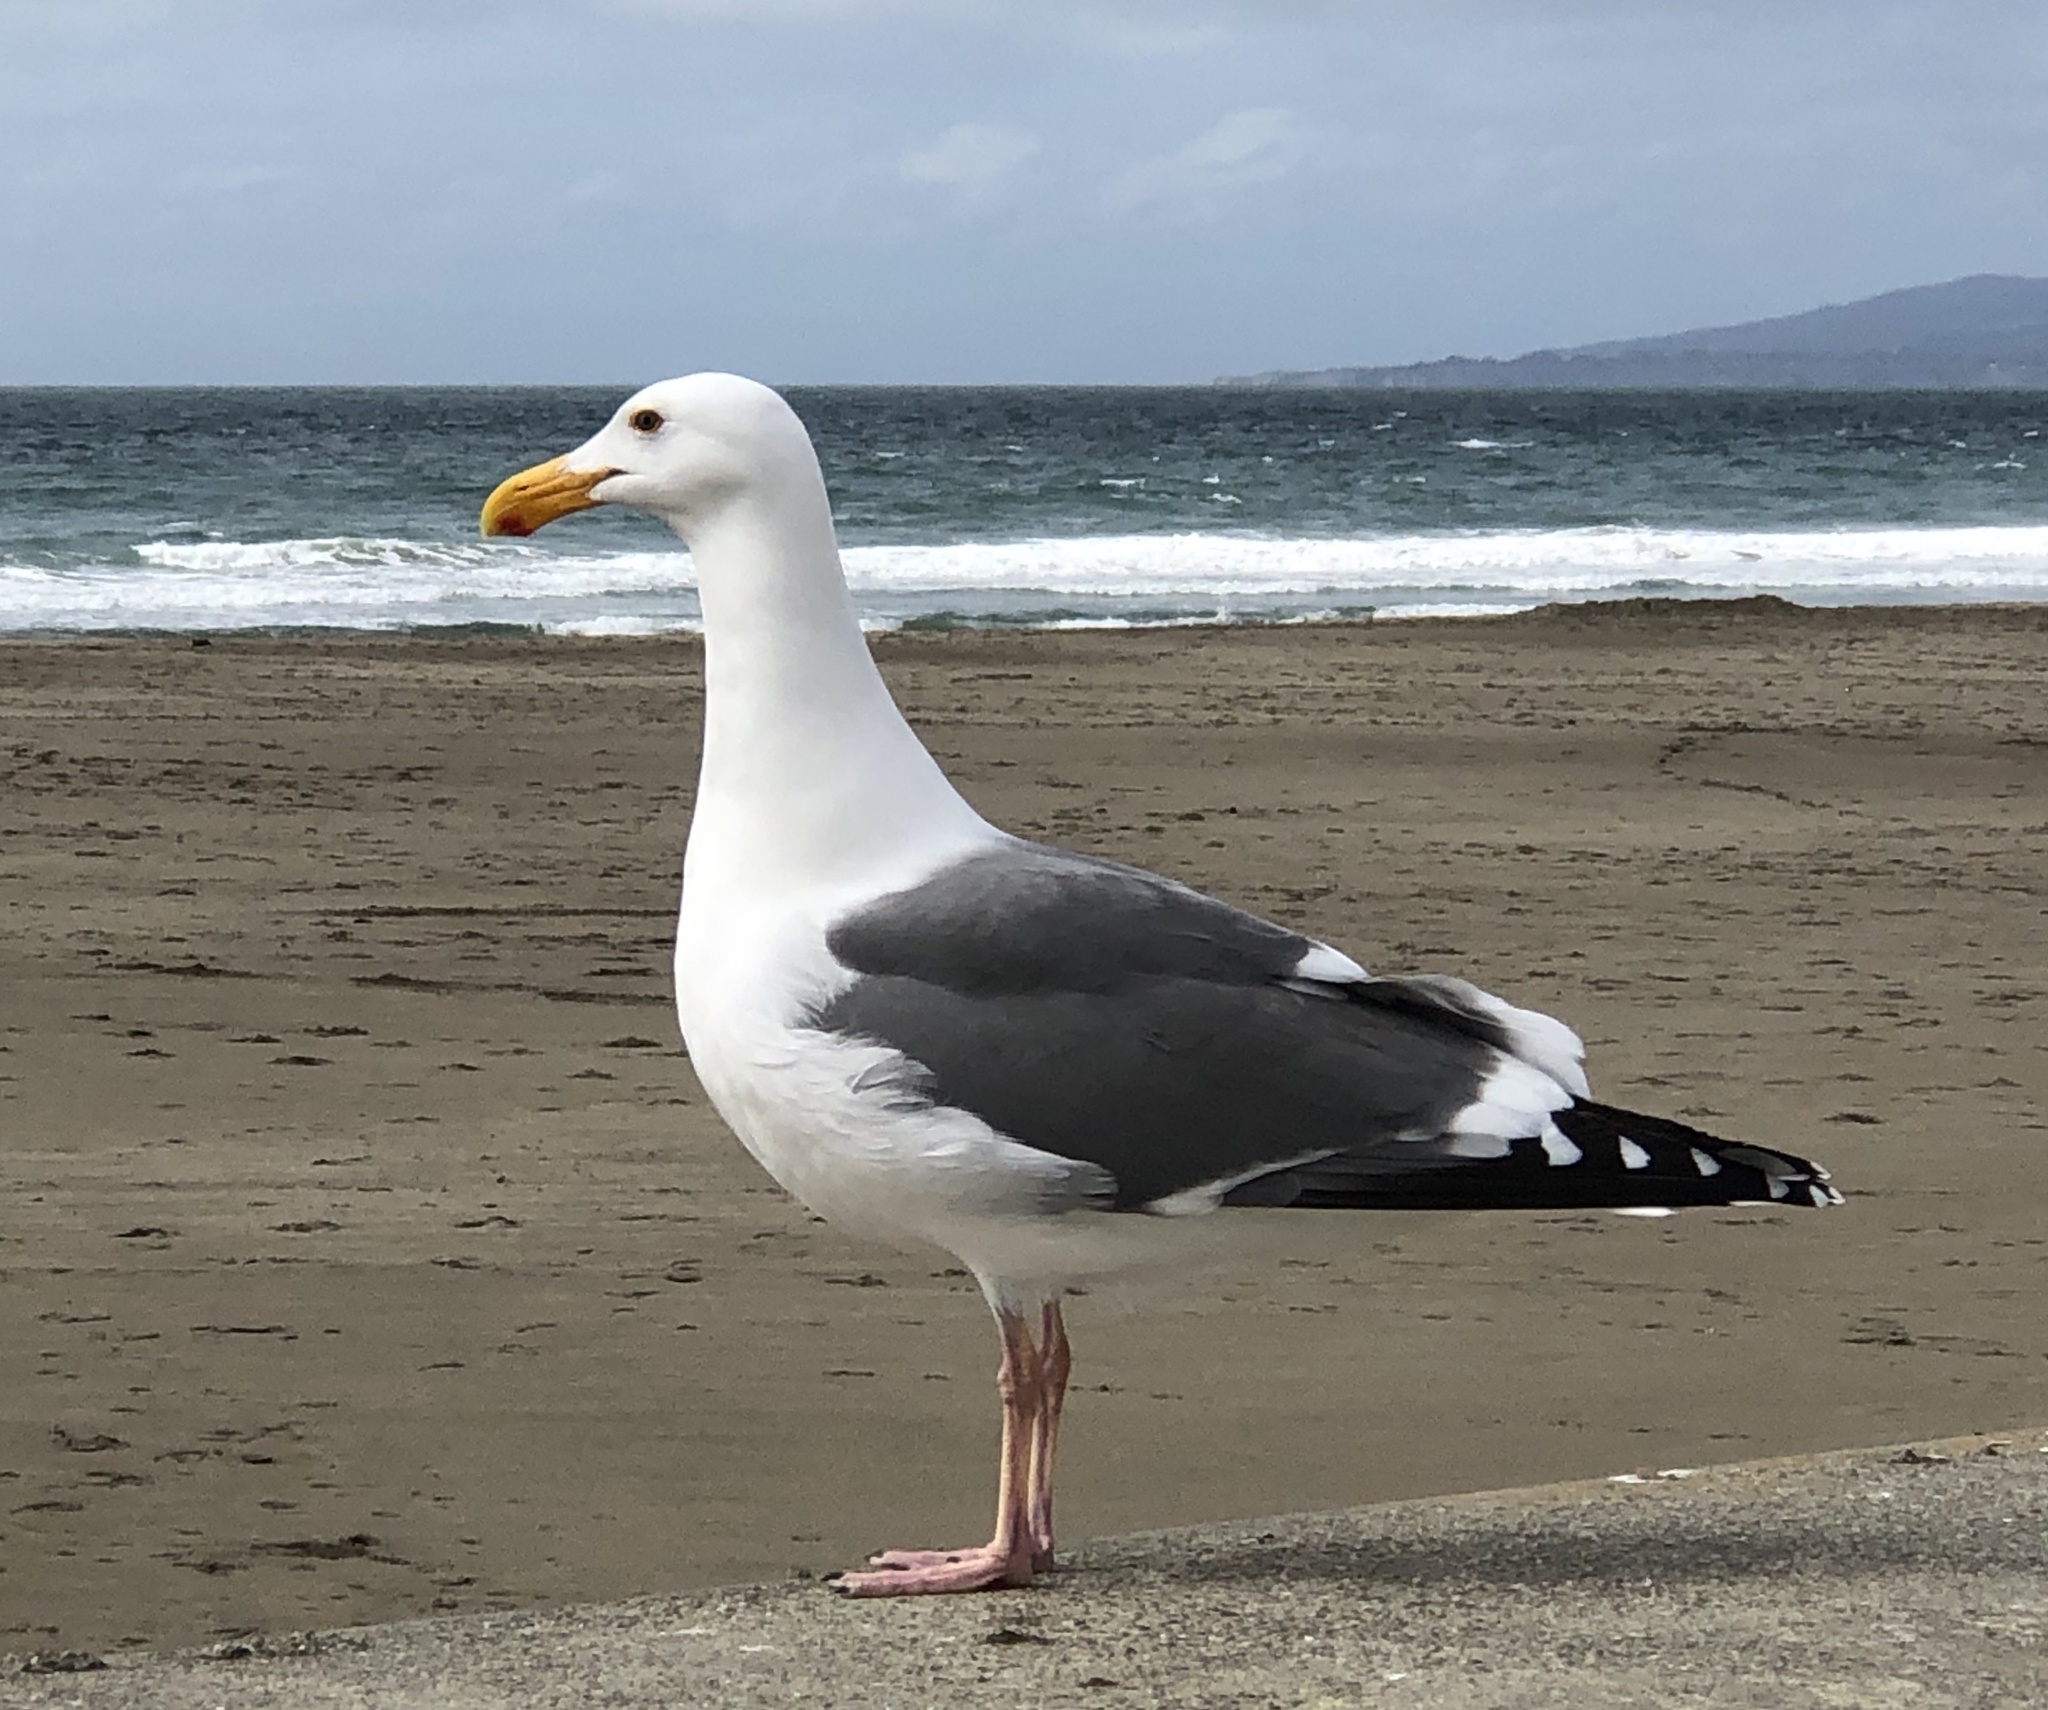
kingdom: Animalia
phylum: Chordata
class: Aves
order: Charadriiformes
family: Laridae
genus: Larus
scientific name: Larus occidentalis
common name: Western gull
